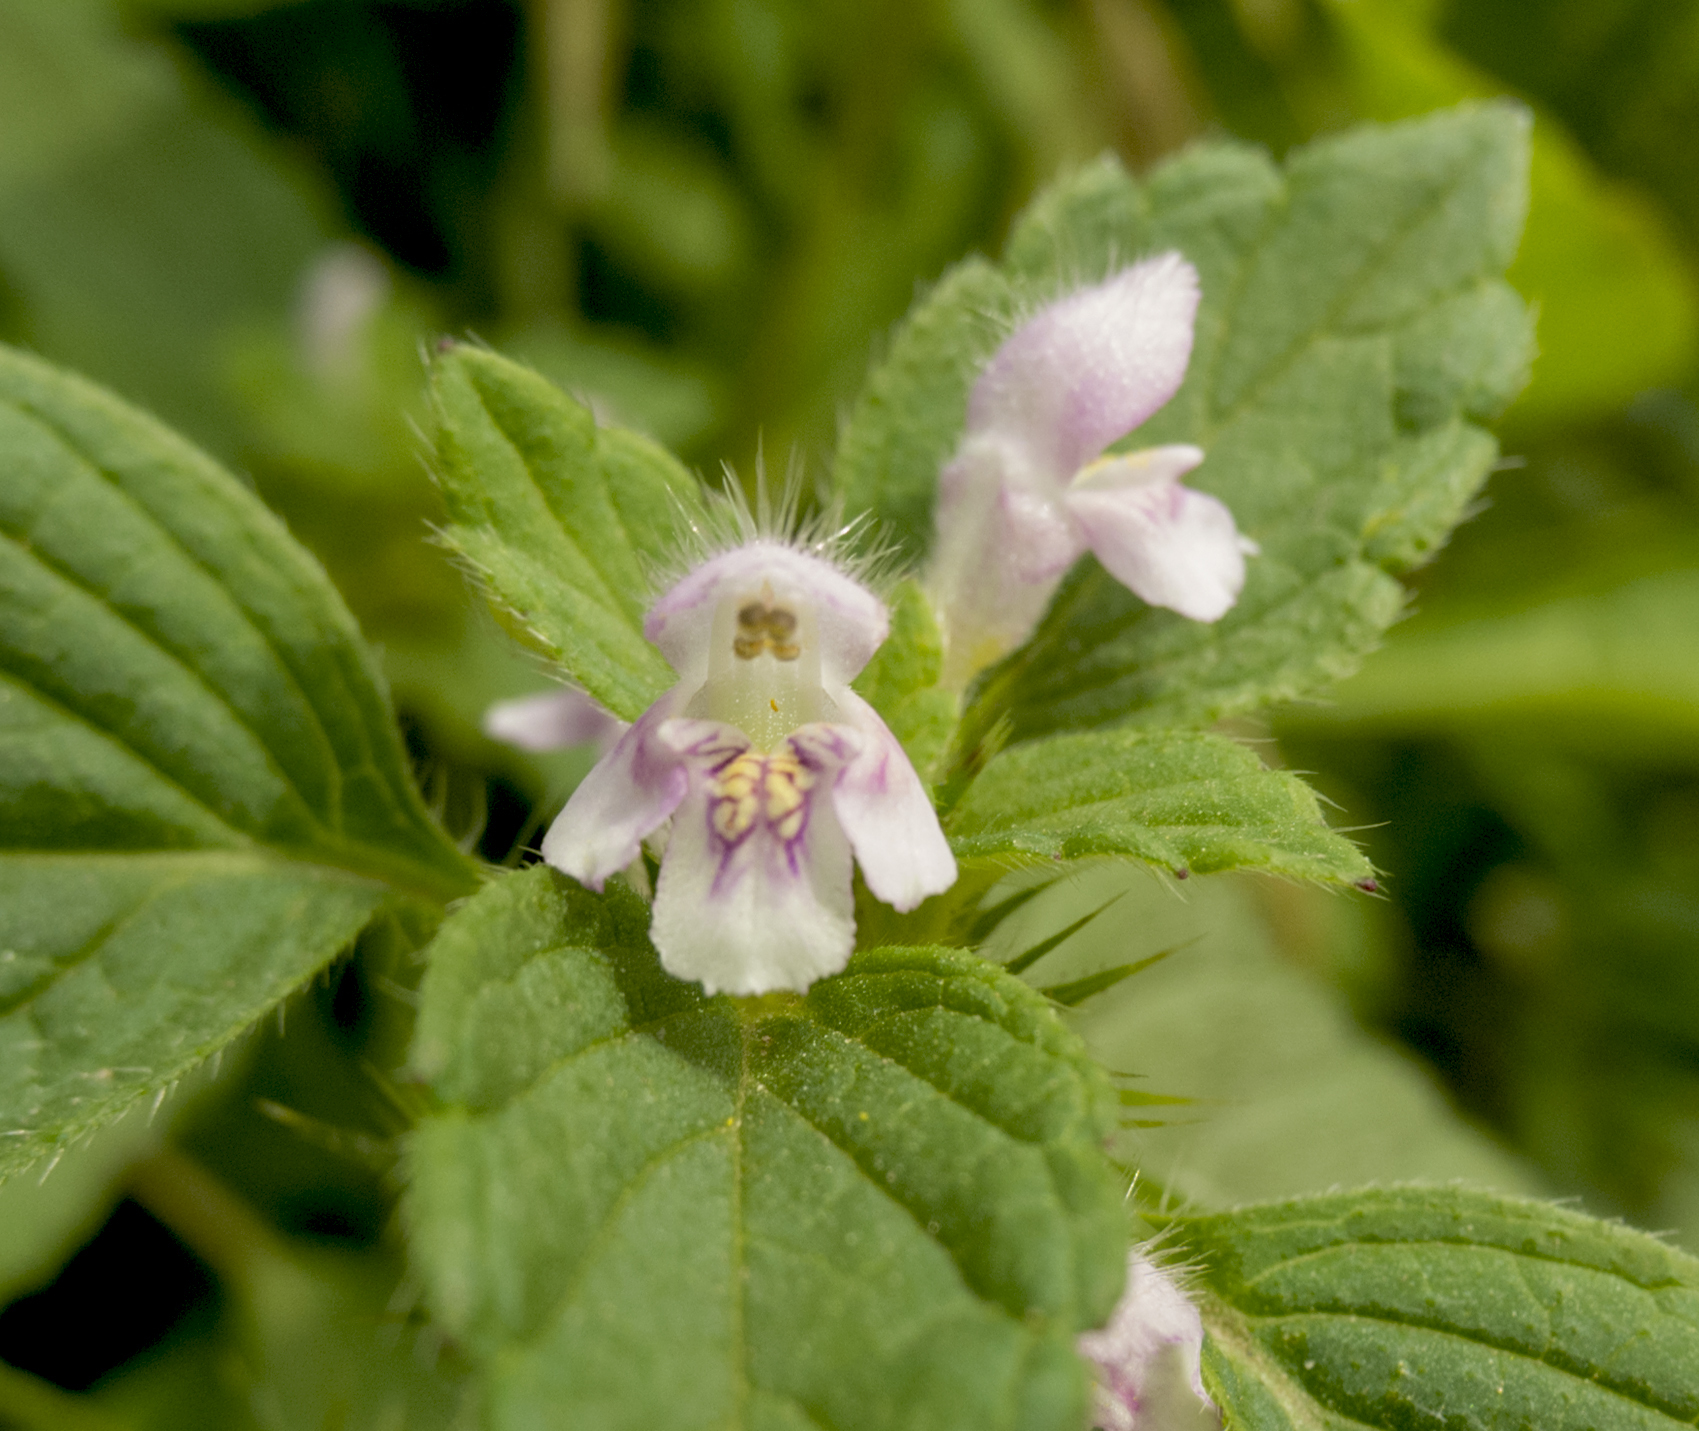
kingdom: Plantae
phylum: Tracheophyta
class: Magnoliopsida
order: Lamiales
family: Lamiaceae
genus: Galeopsis
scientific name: Galeopsis tetrahit
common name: Common hemp-nettle
